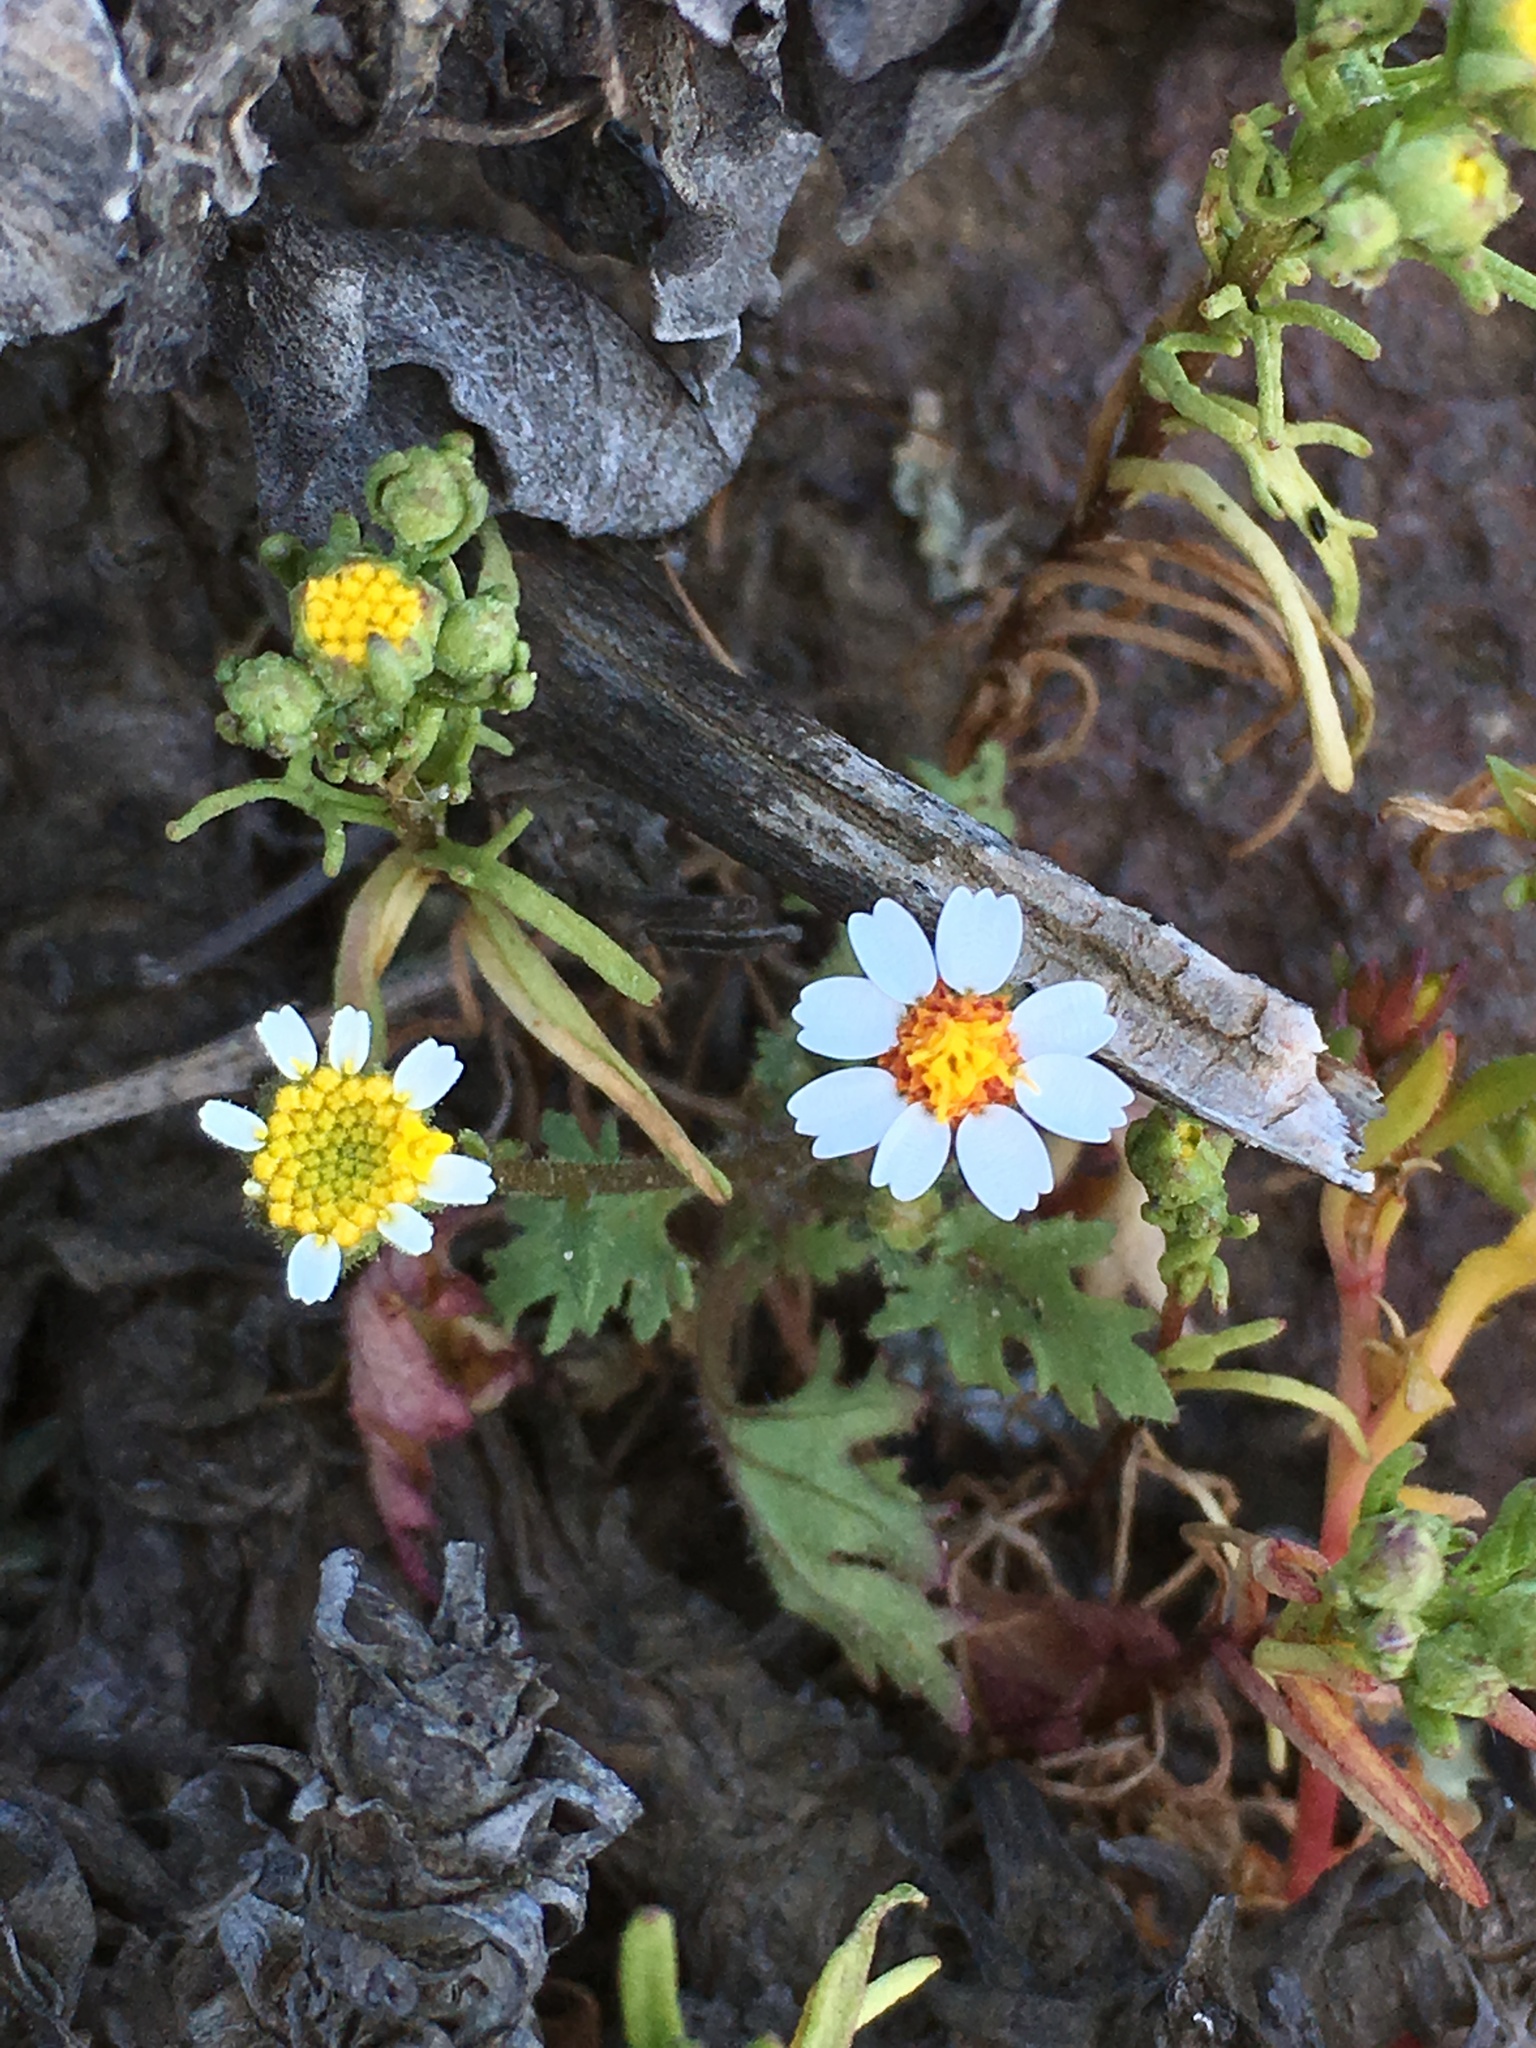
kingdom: Plantae
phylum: Tracheophyta
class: Magnoliopsida
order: Asterales
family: Asteraceae
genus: Laphamia
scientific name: Laphamia emoryi
